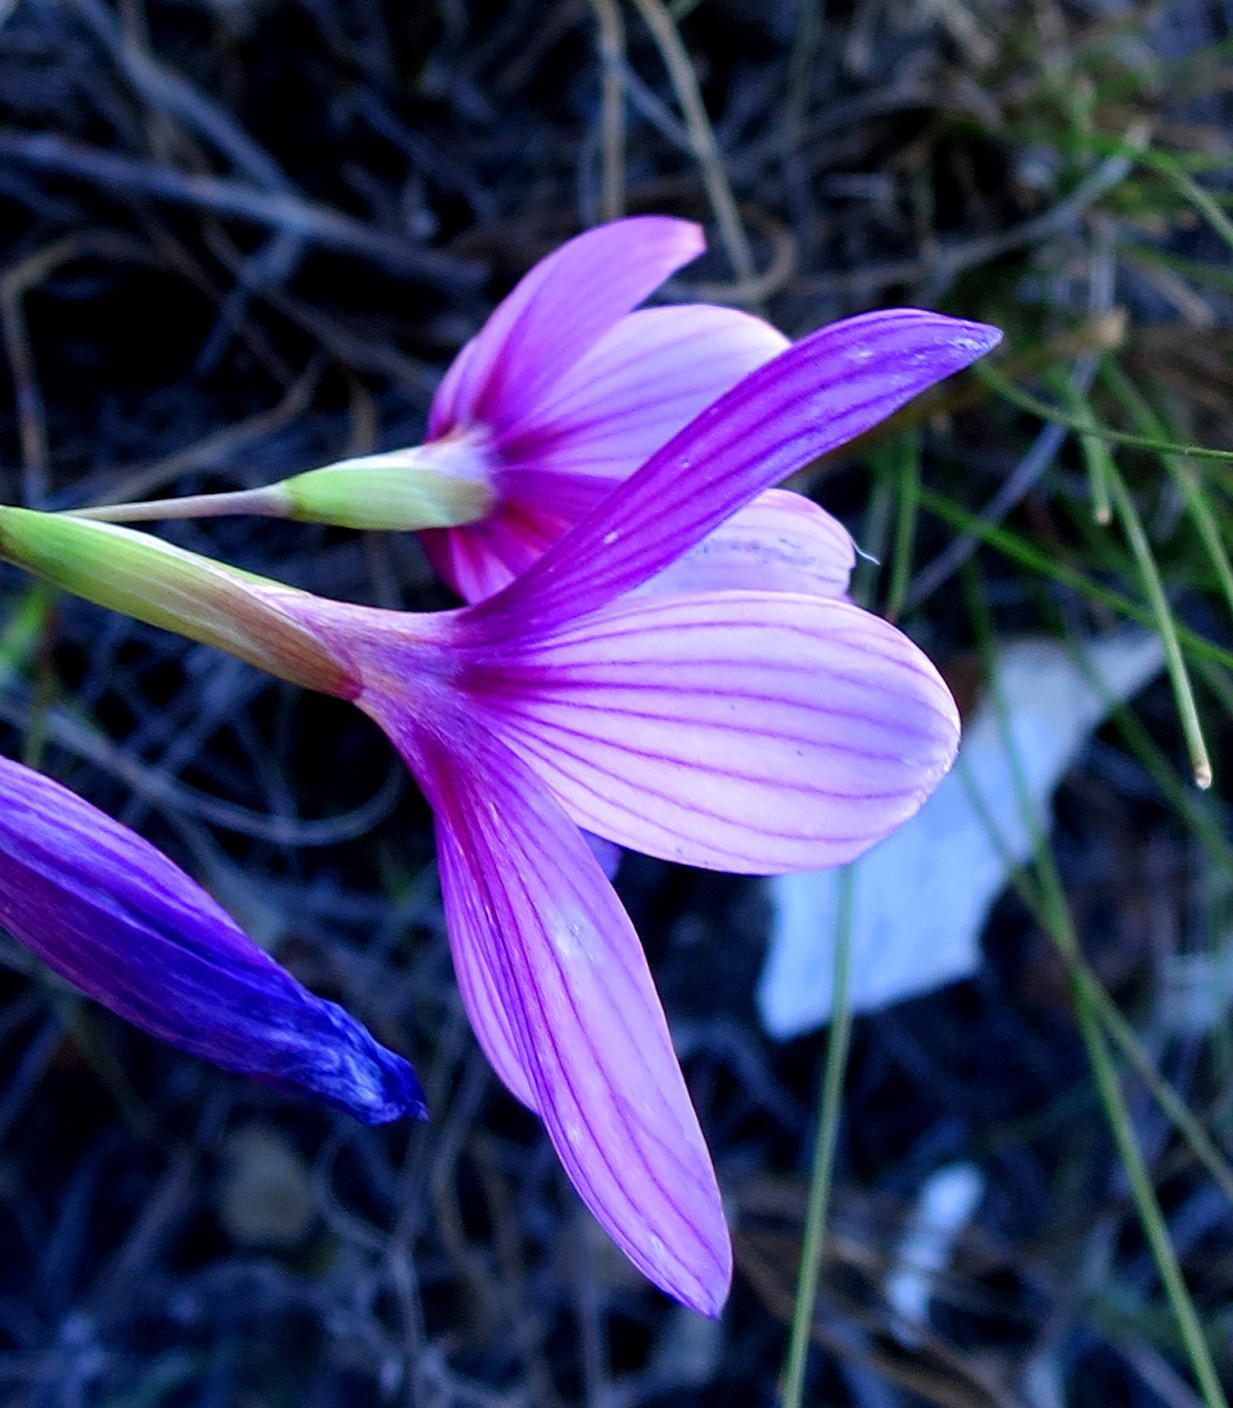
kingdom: Plantae
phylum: Tracheophyta
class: Liliopsida
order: Asparagales
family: Iridaceae
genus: Geissorhiza
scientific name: Geissorhiza elsiae
